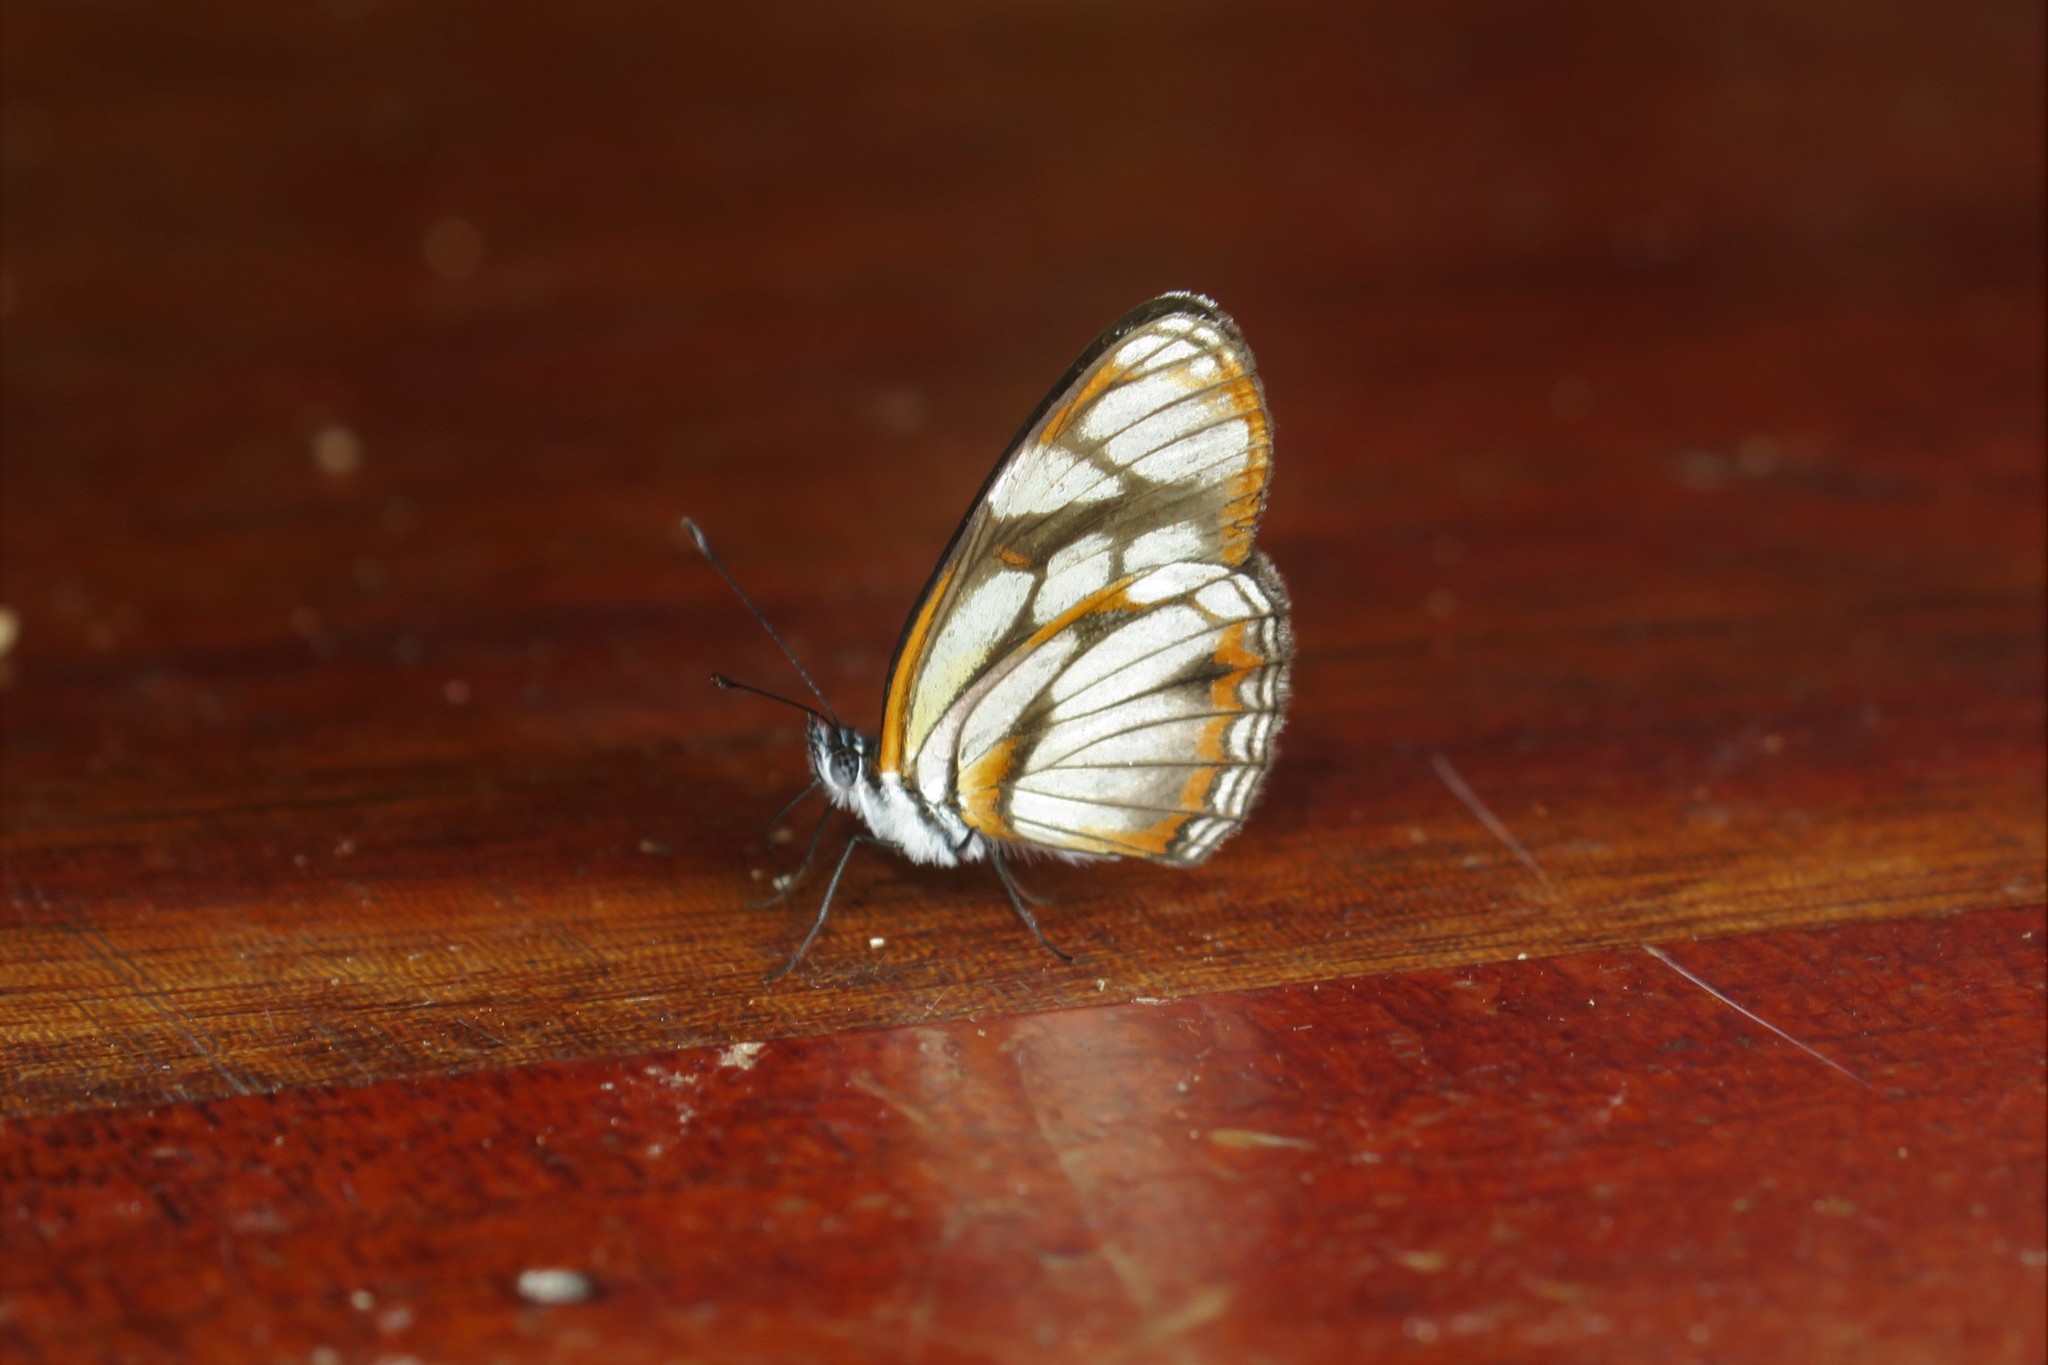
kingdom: Animalia
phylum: Arthropoda
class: Insecta
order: Lepidoptera
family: Nymphalidae
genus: Eresia
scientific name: Eresia letitia
